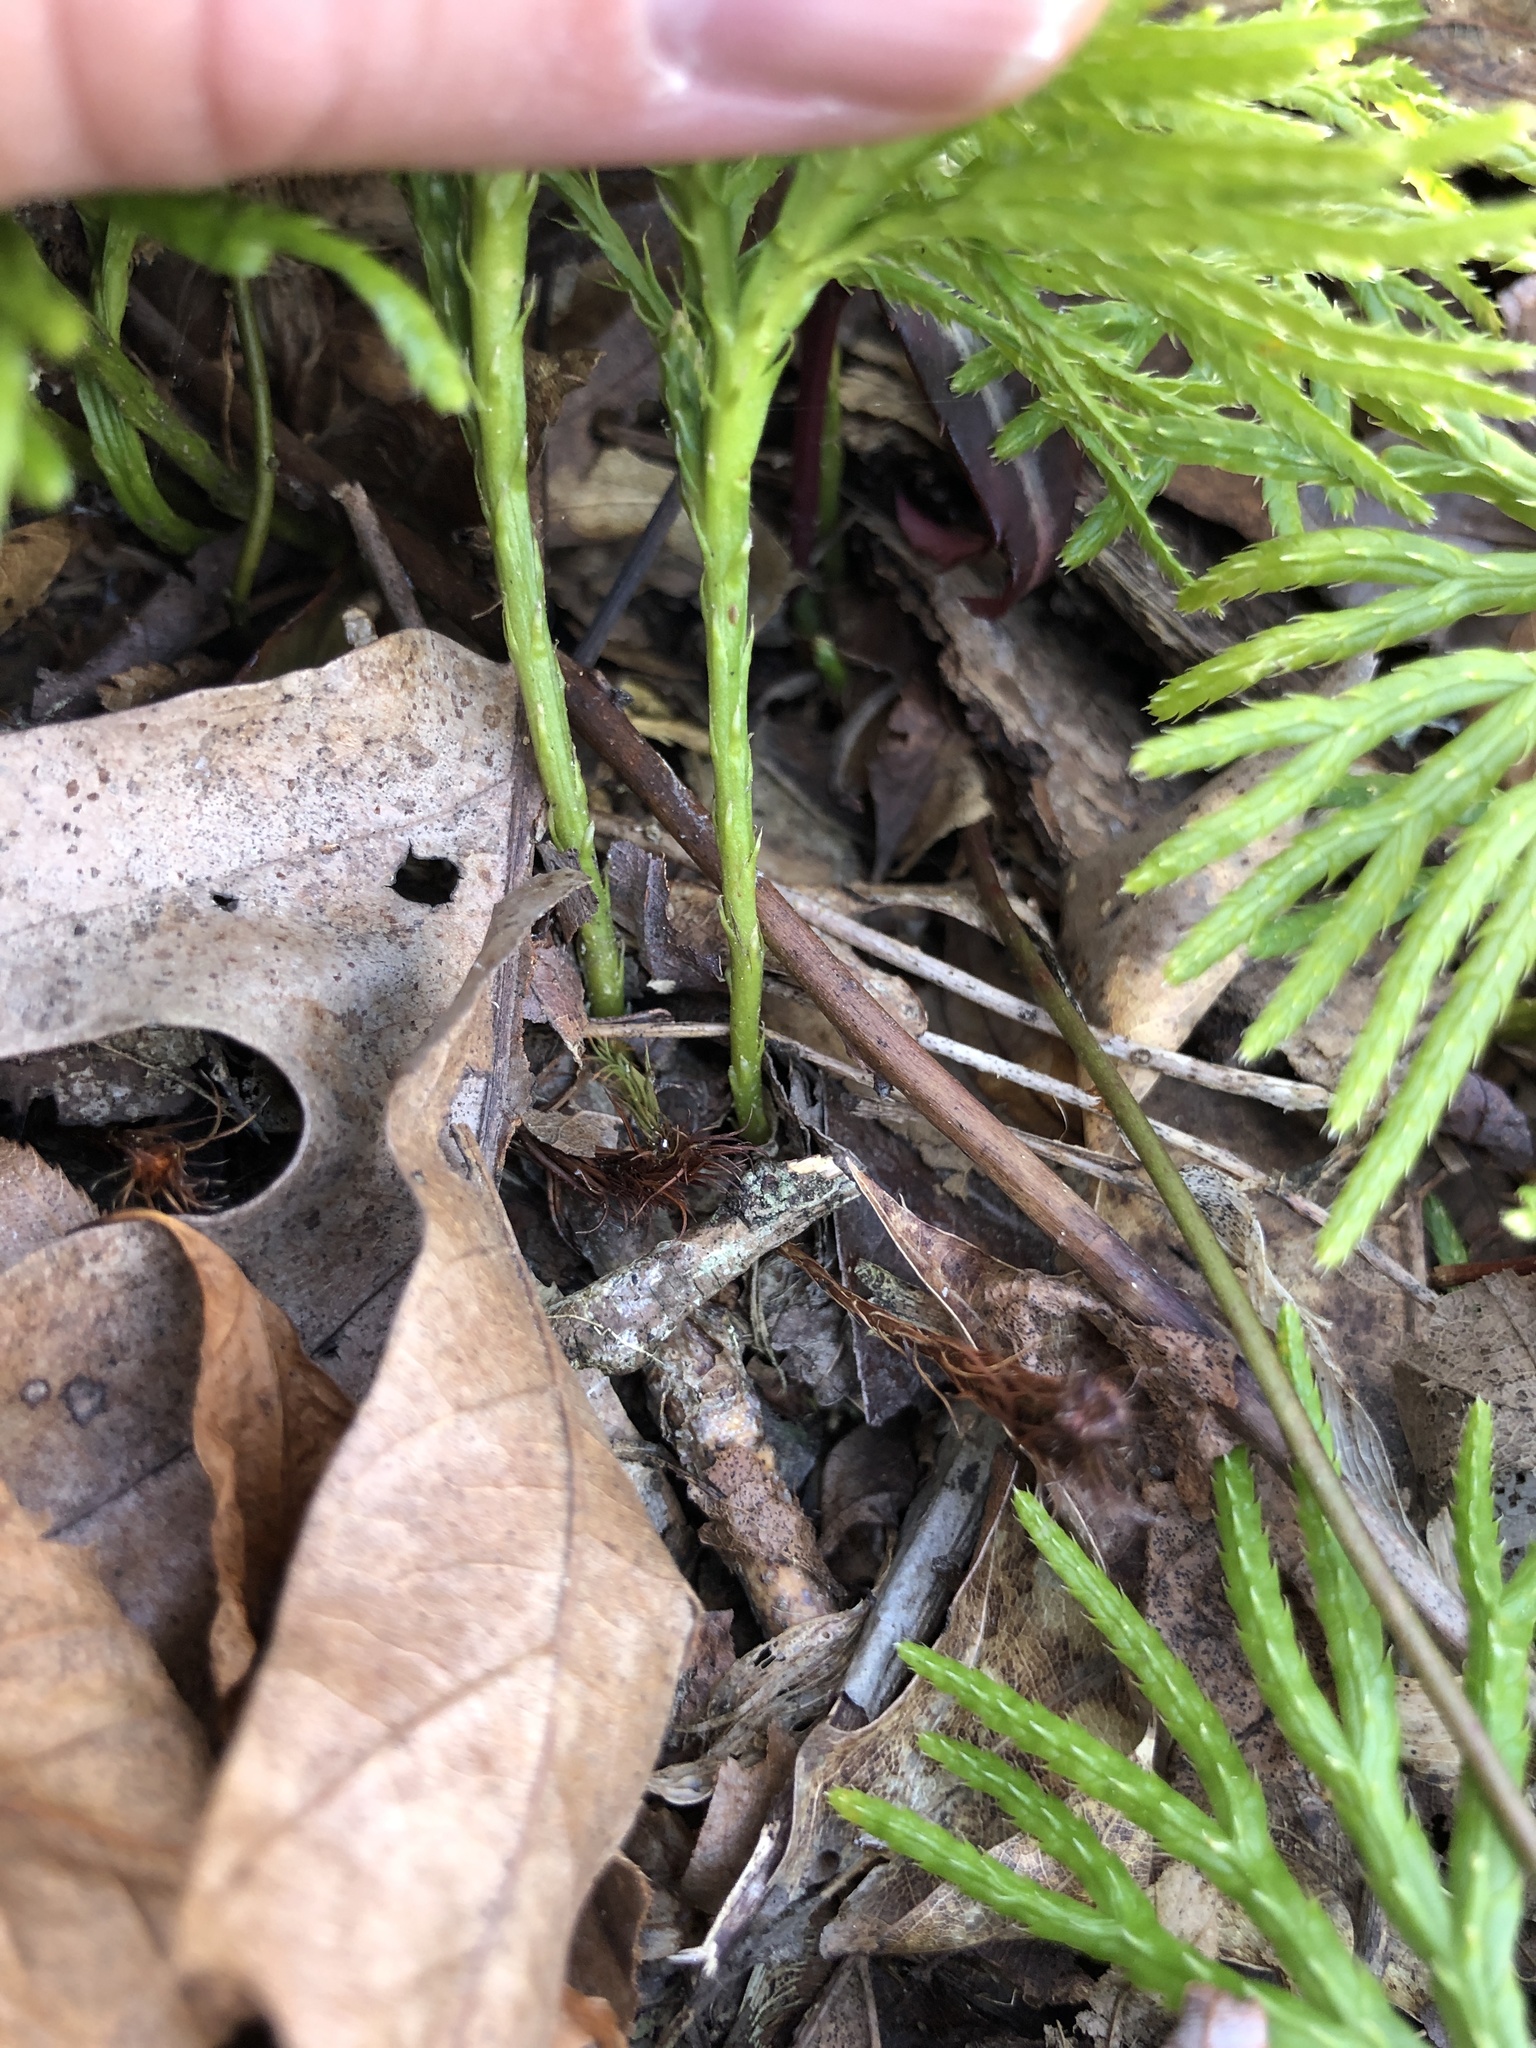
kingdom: Plantae
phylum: Tracheophyta
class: Lycopodiopsida
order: Lycopodiales
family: Lycopodiaceae
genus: Diphasiastrum
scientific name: Diphasiastrum digitatum
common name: Southern running-pine
